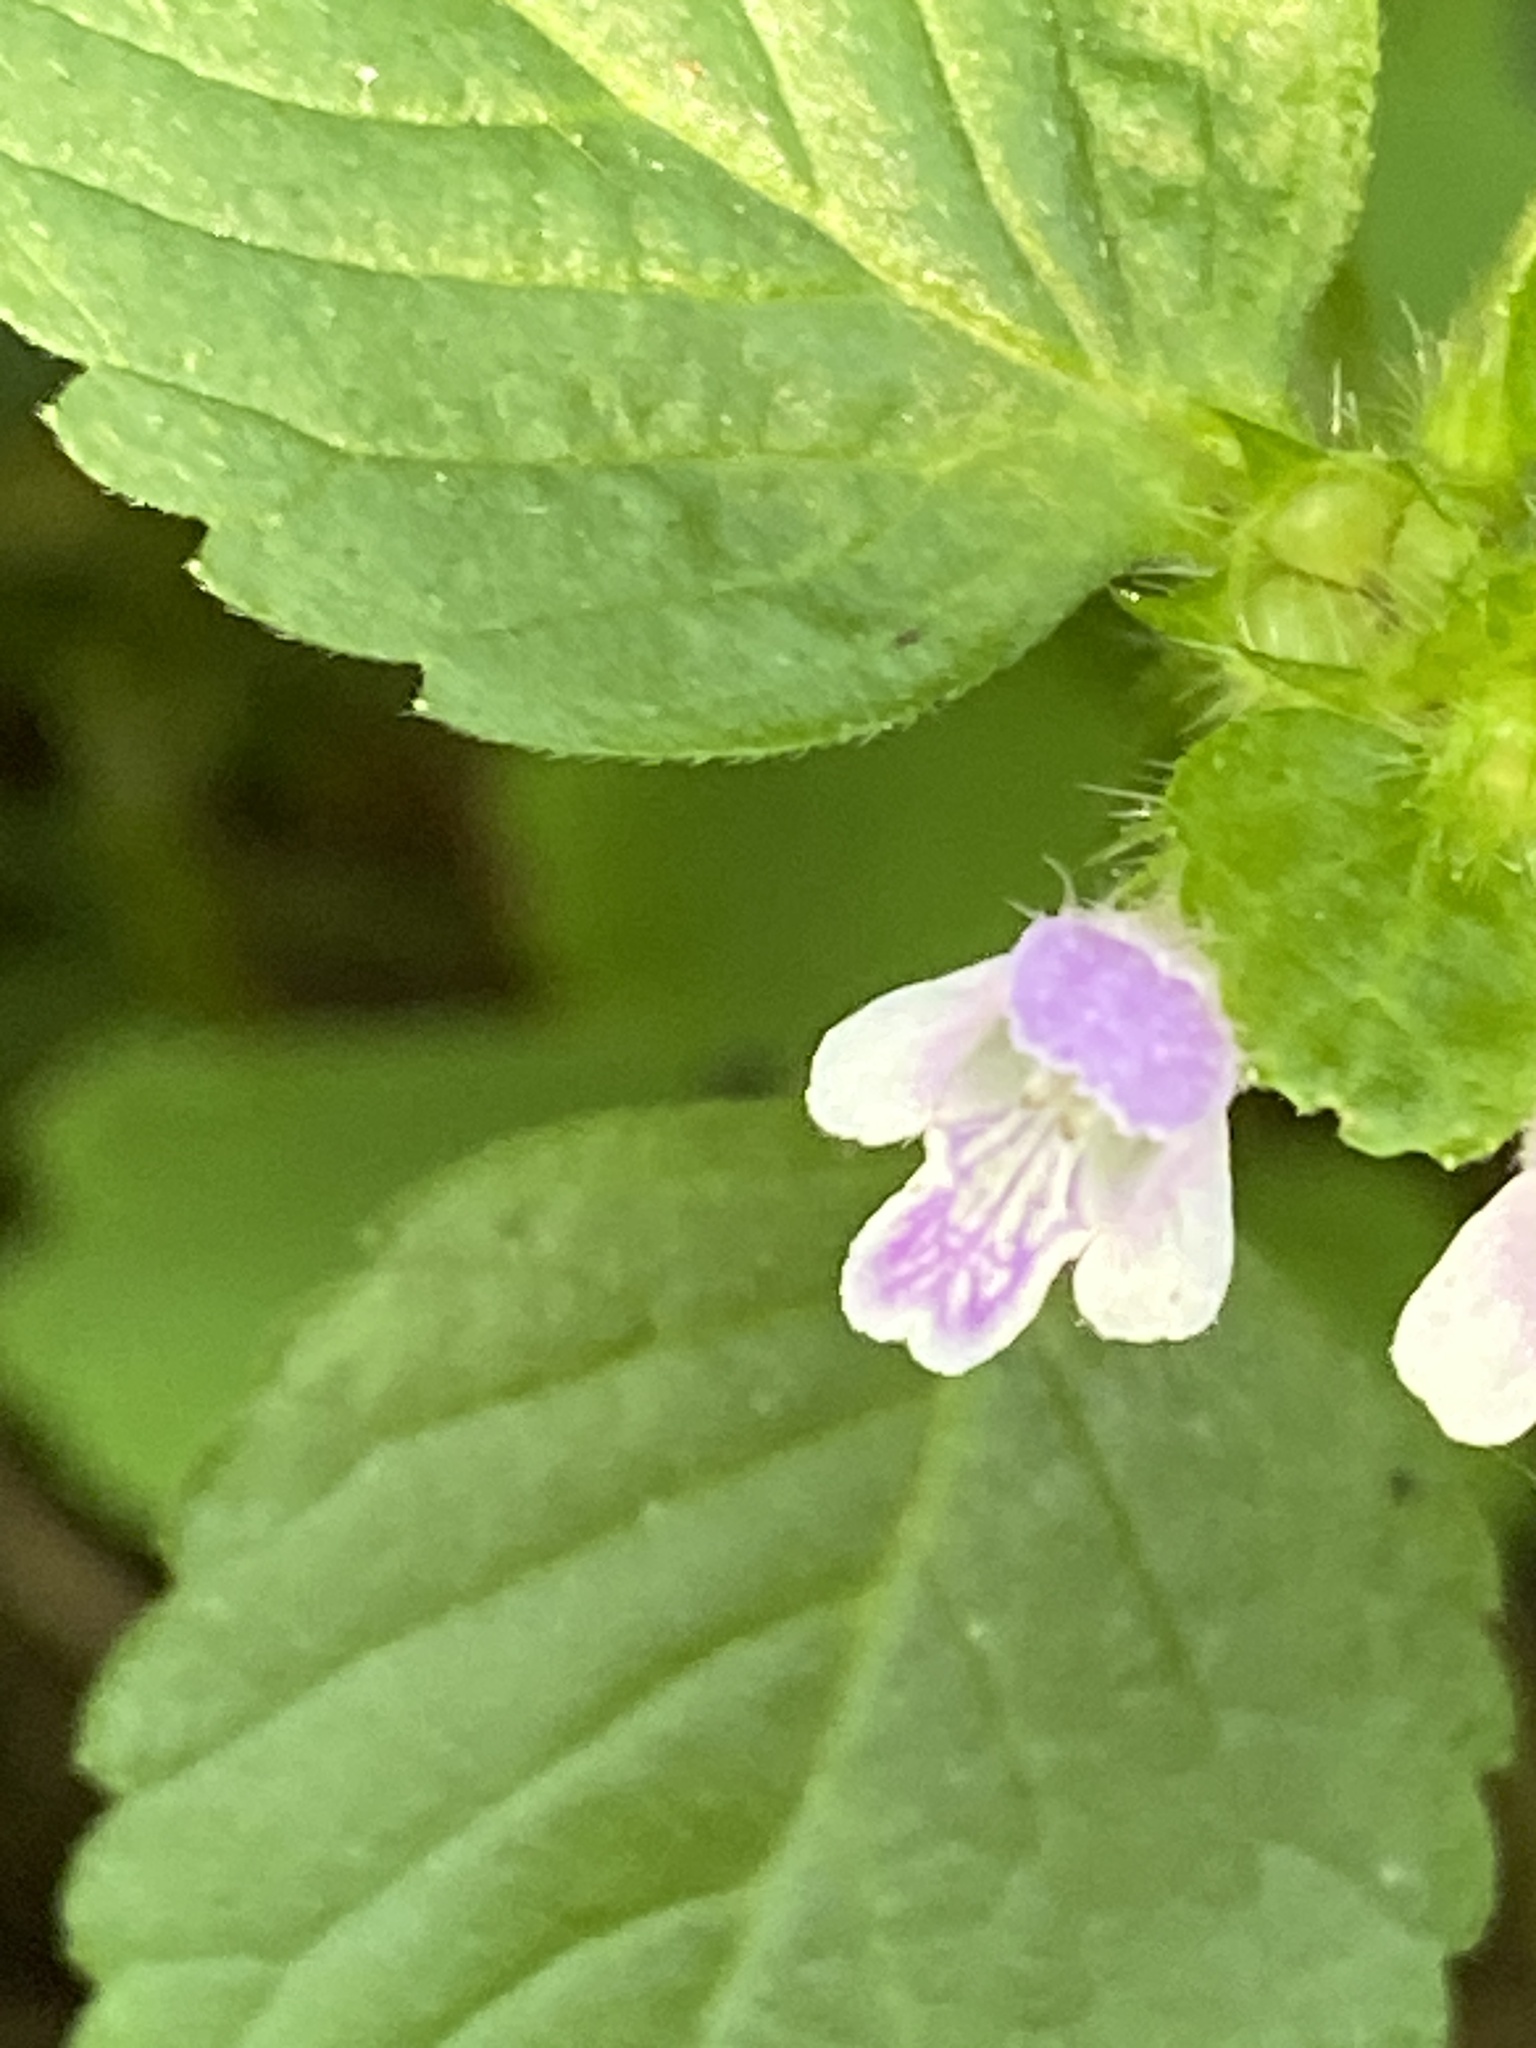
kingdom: Plantae
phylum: Tracheophyta
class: Magnoliopsida
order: Lamiales
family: Lamiaceae
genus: Galeopsis
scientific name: Galeopsis bifida
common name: Bifid hemp-nettle
